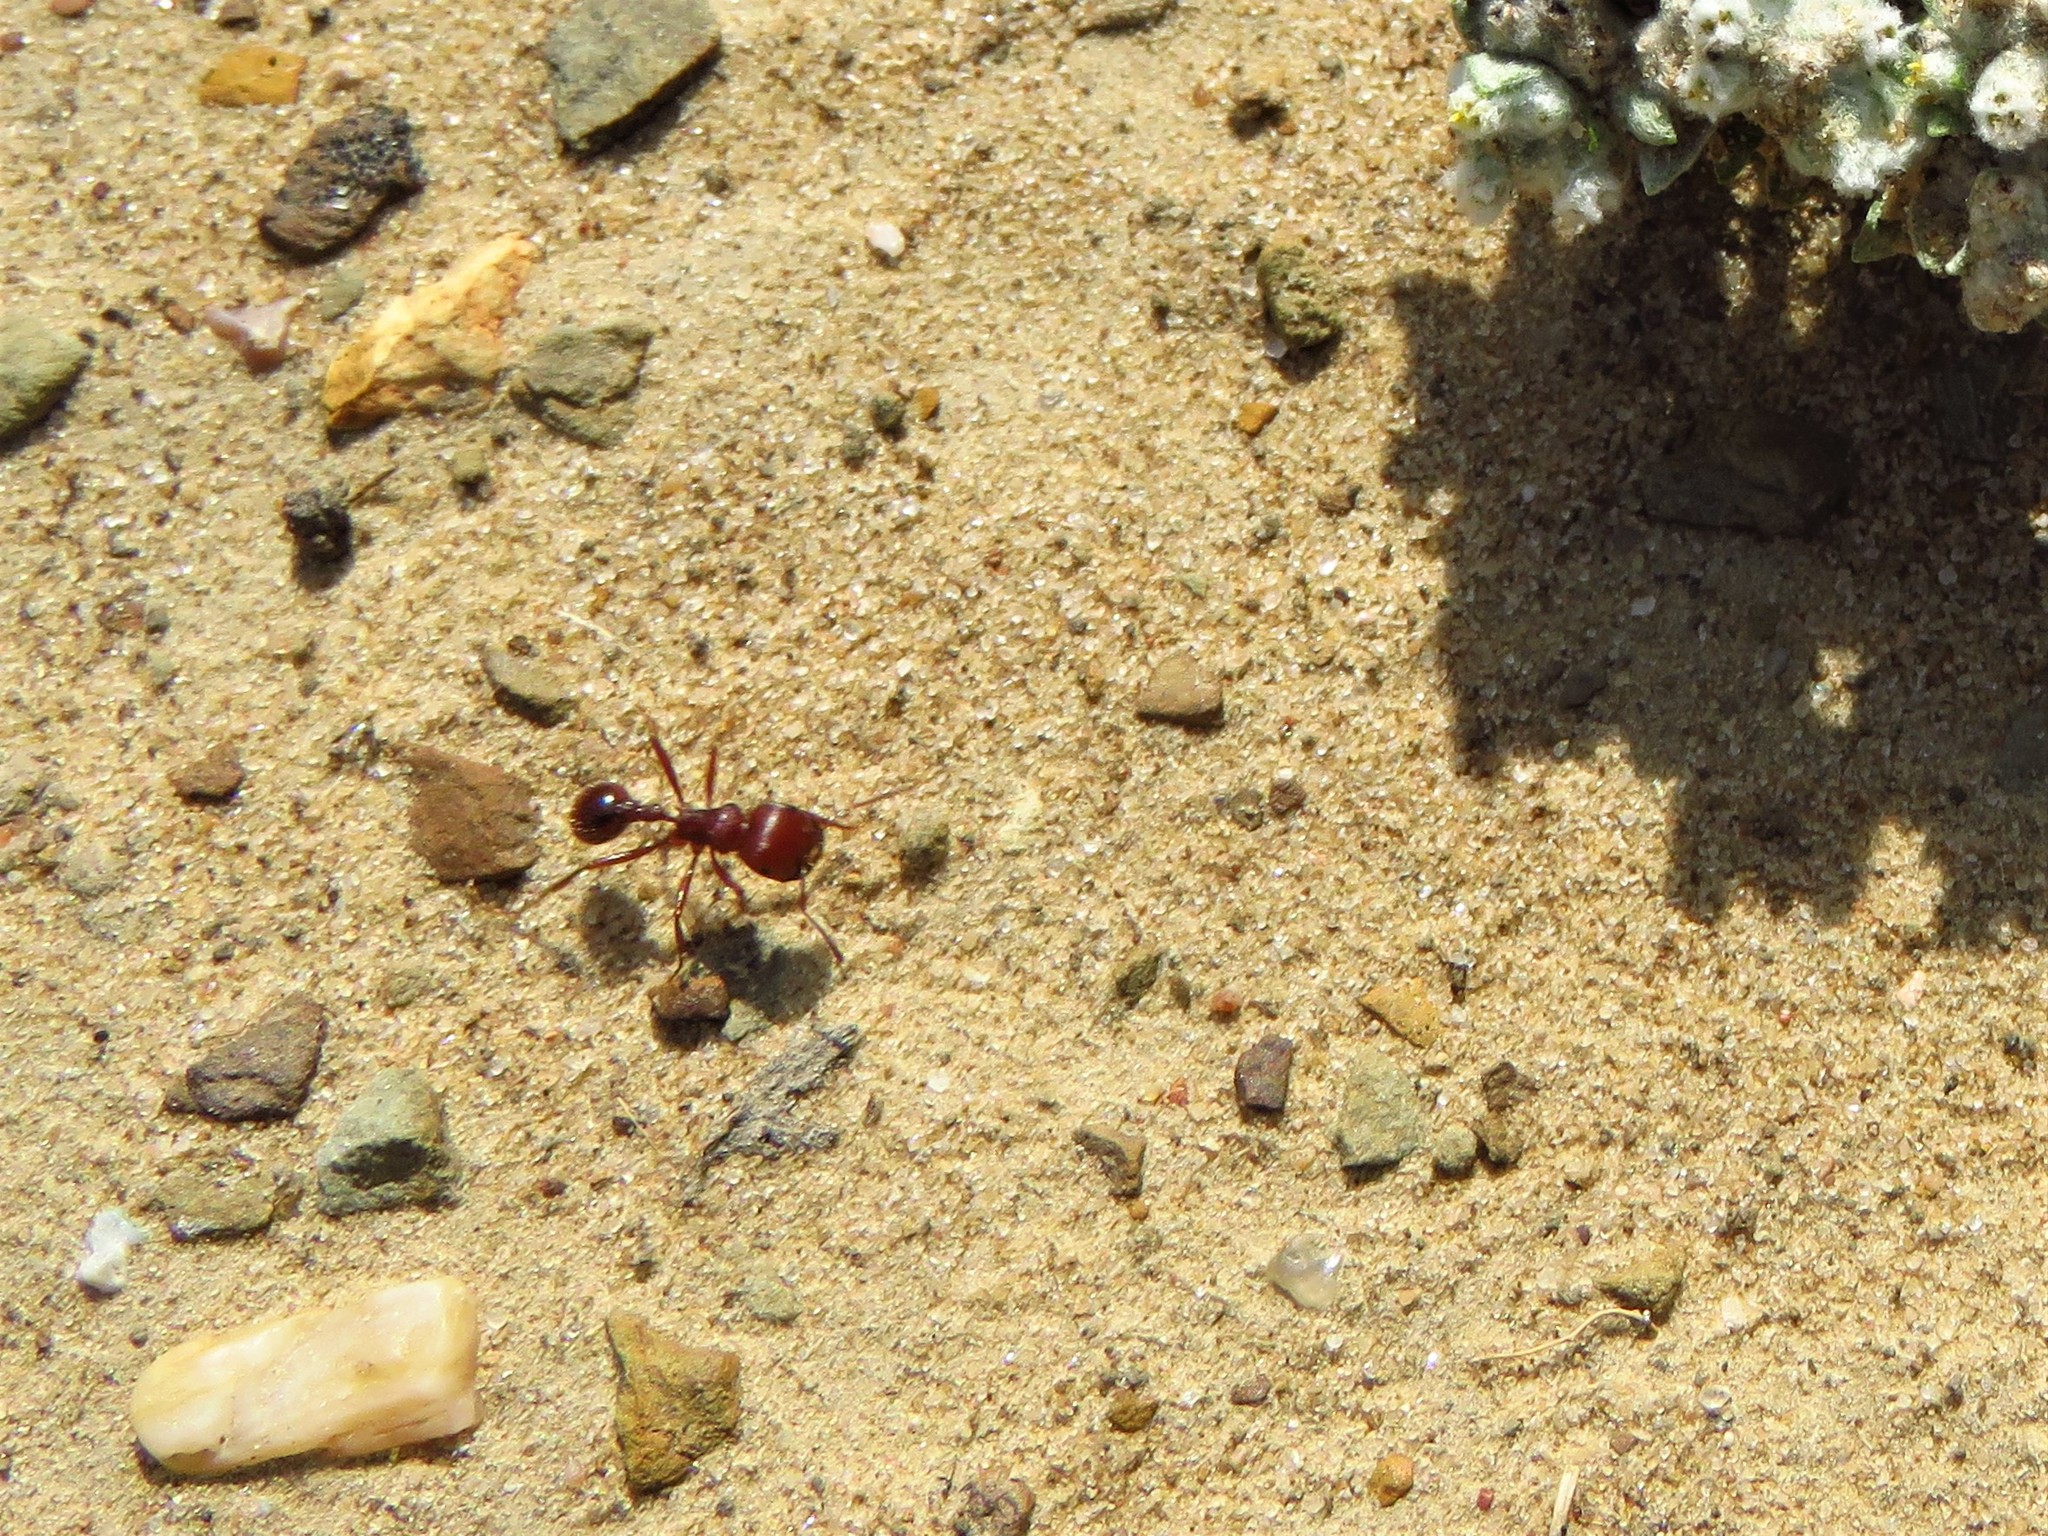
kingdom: Animalia
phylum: Arthropoda
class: Insecta
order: Hymenoptera
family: Formicidae
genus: Pogonomyrmex
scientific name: Pogonomyrmex barbatus
